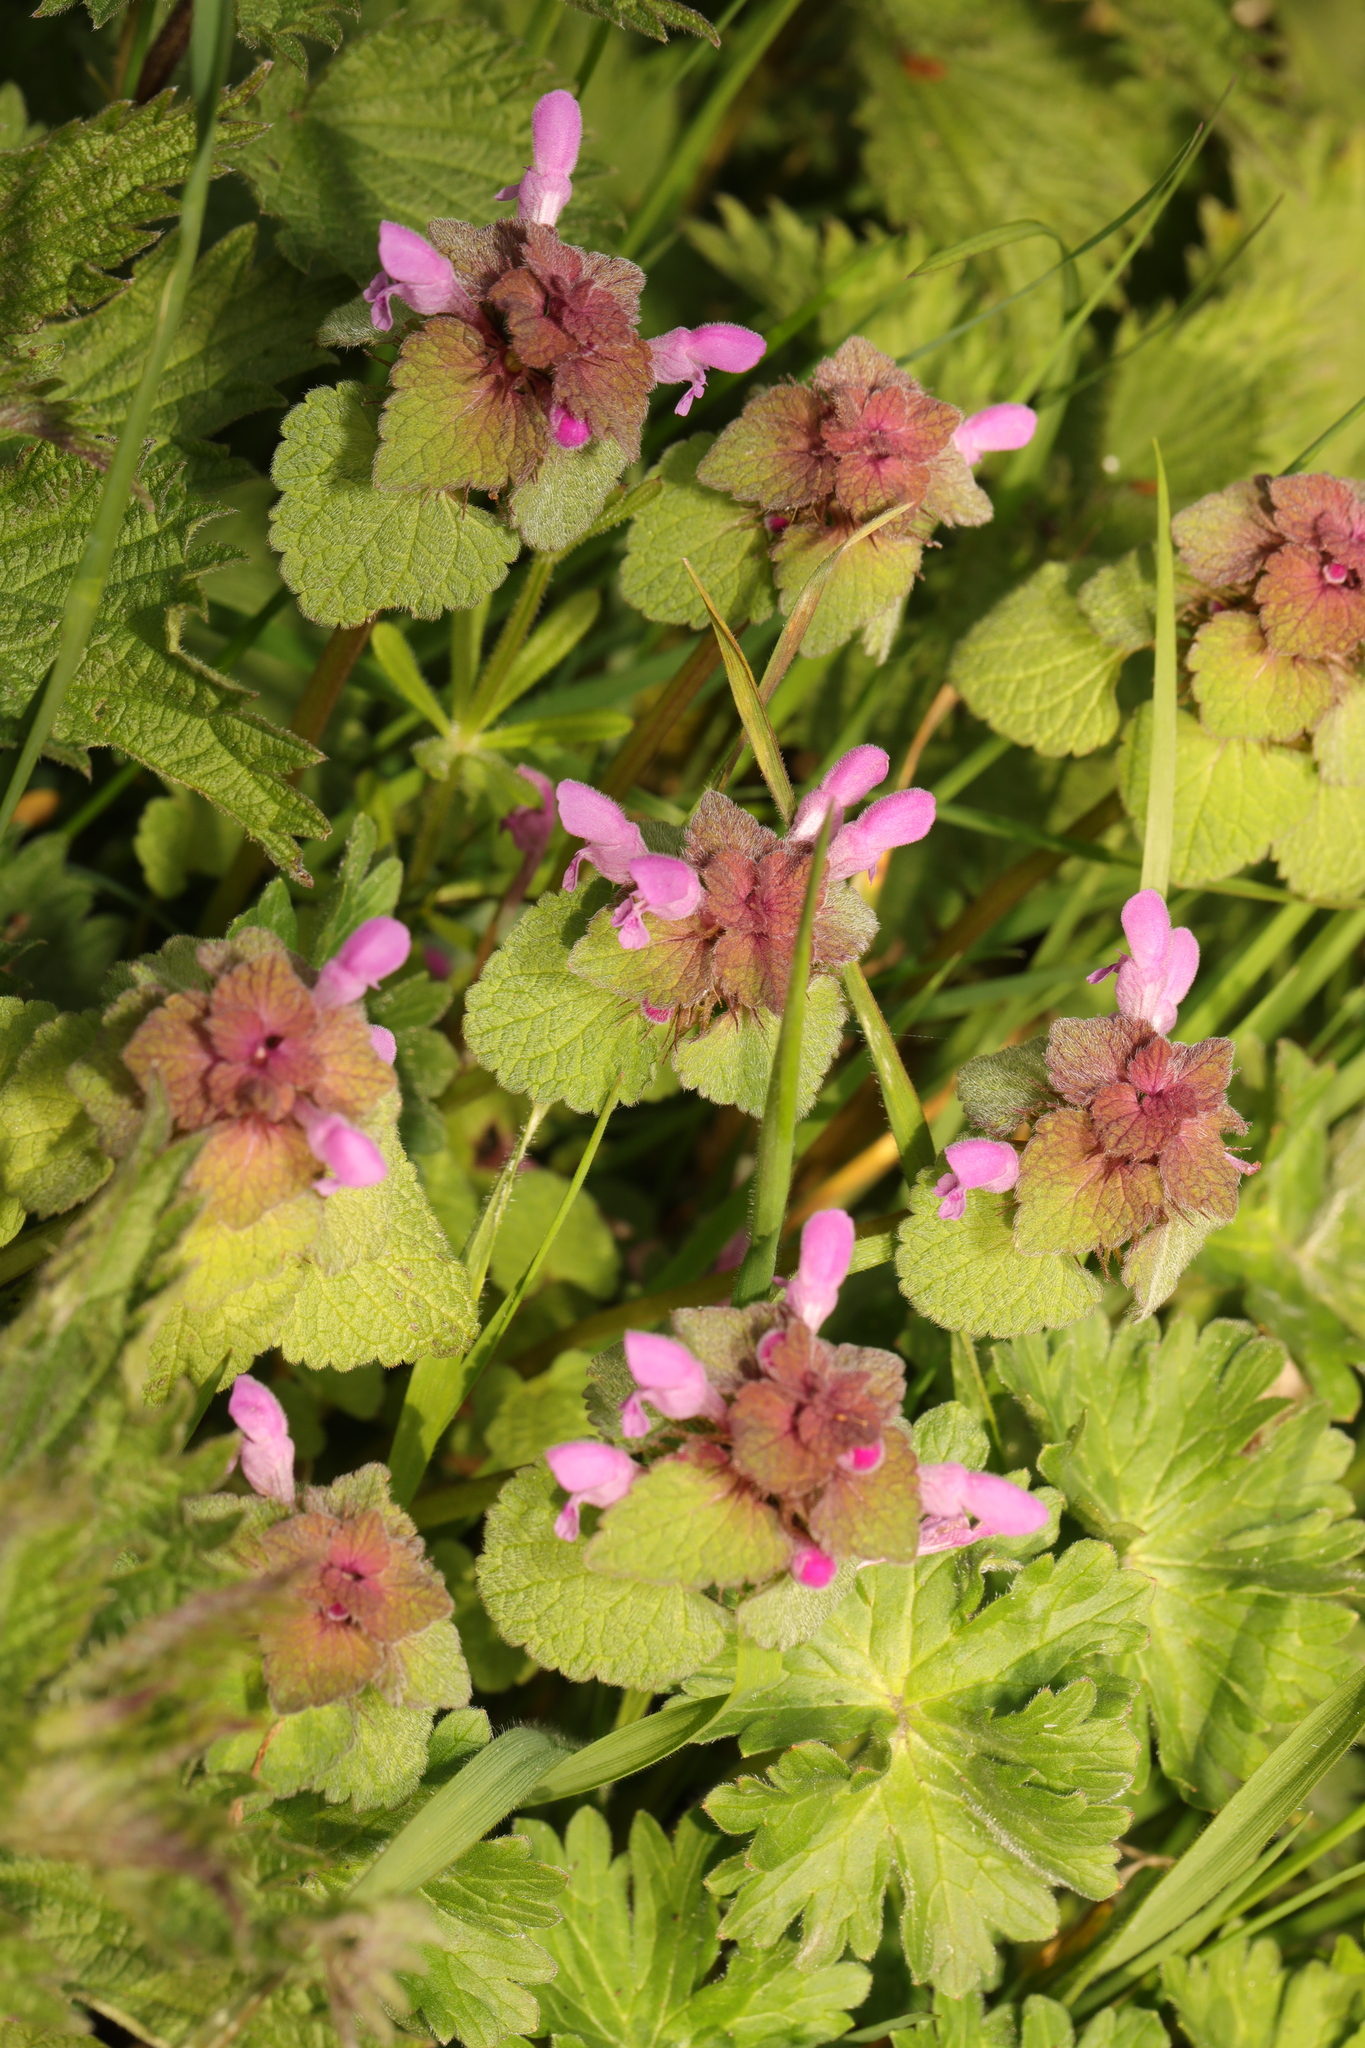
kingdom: Plantae
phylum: Tracheophyta
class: Magnoliopsida
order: Lamiales
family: Lamiaceae
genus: Lamium
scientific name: Lamium purpureum
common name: Red dead-nettle
